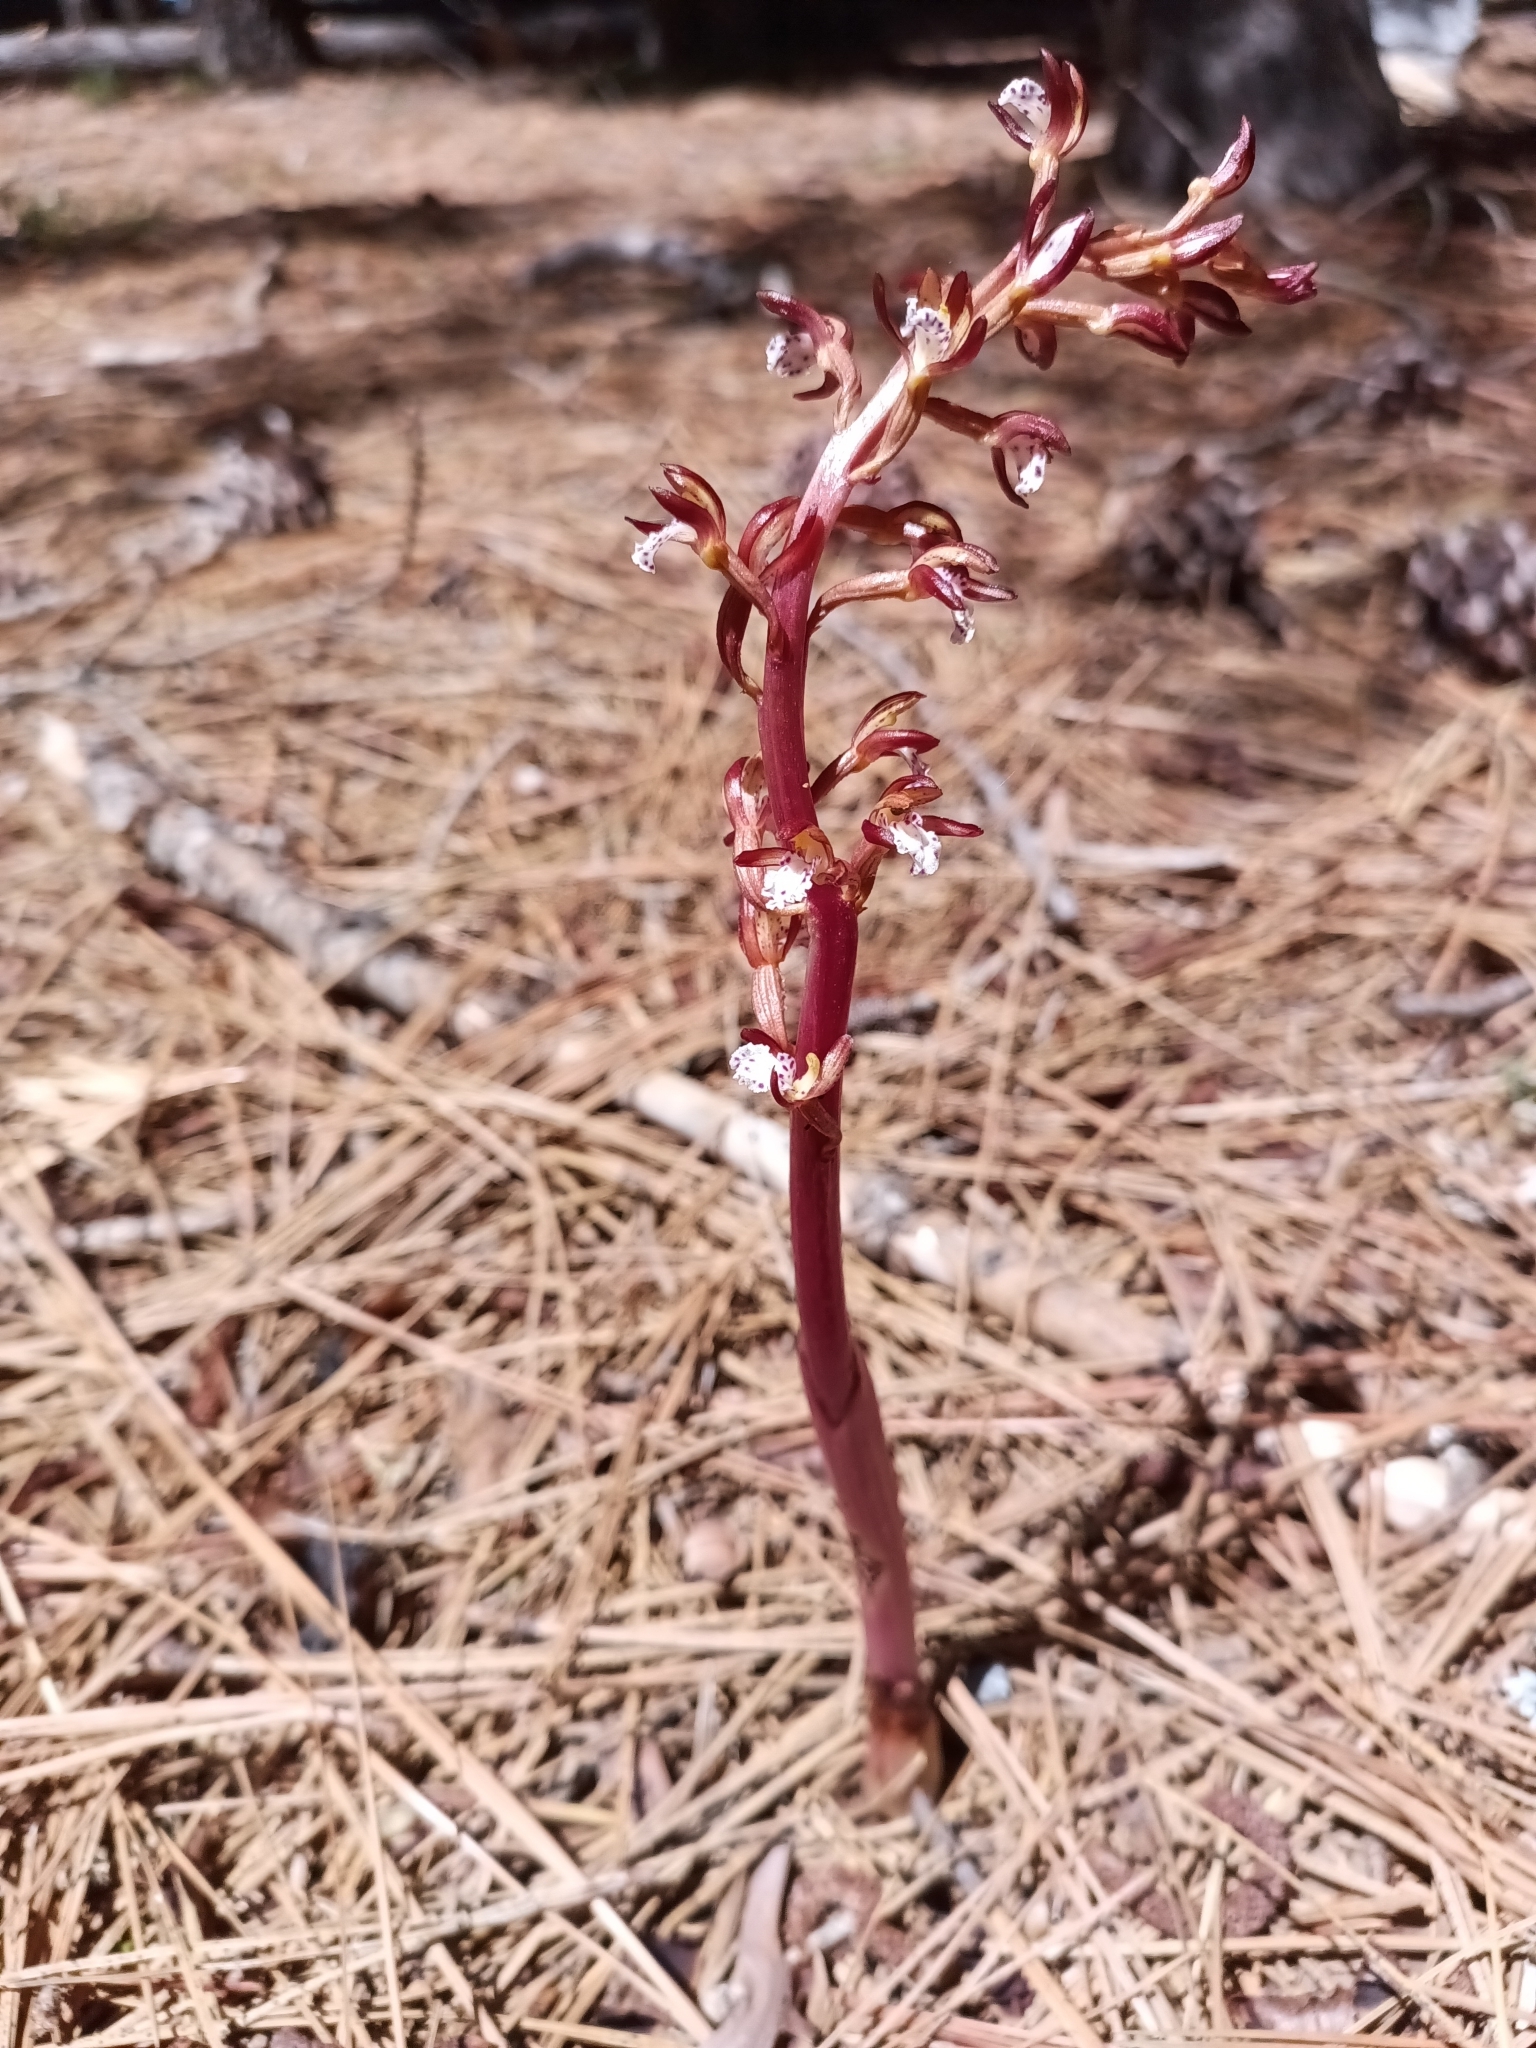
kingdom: Plantae
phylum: Tracheophyta
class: Liliopsida
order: Asparagales
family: Orchidaceae
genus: Corallorhiza
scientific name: Corallorhiza maculata
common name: Spotted coralroot
